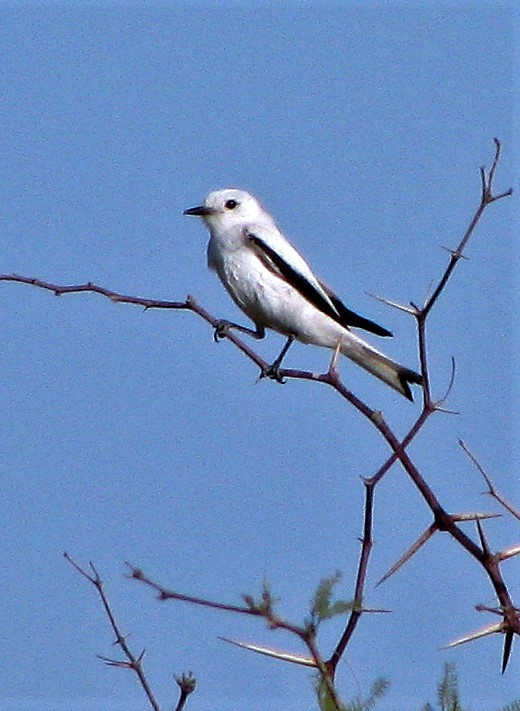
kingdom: Animalia
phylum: Chordata
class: Aves
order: Passeriformes
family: Tyrannidae
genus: Xolmis
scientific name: Xolmis irupero
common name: White monjita
